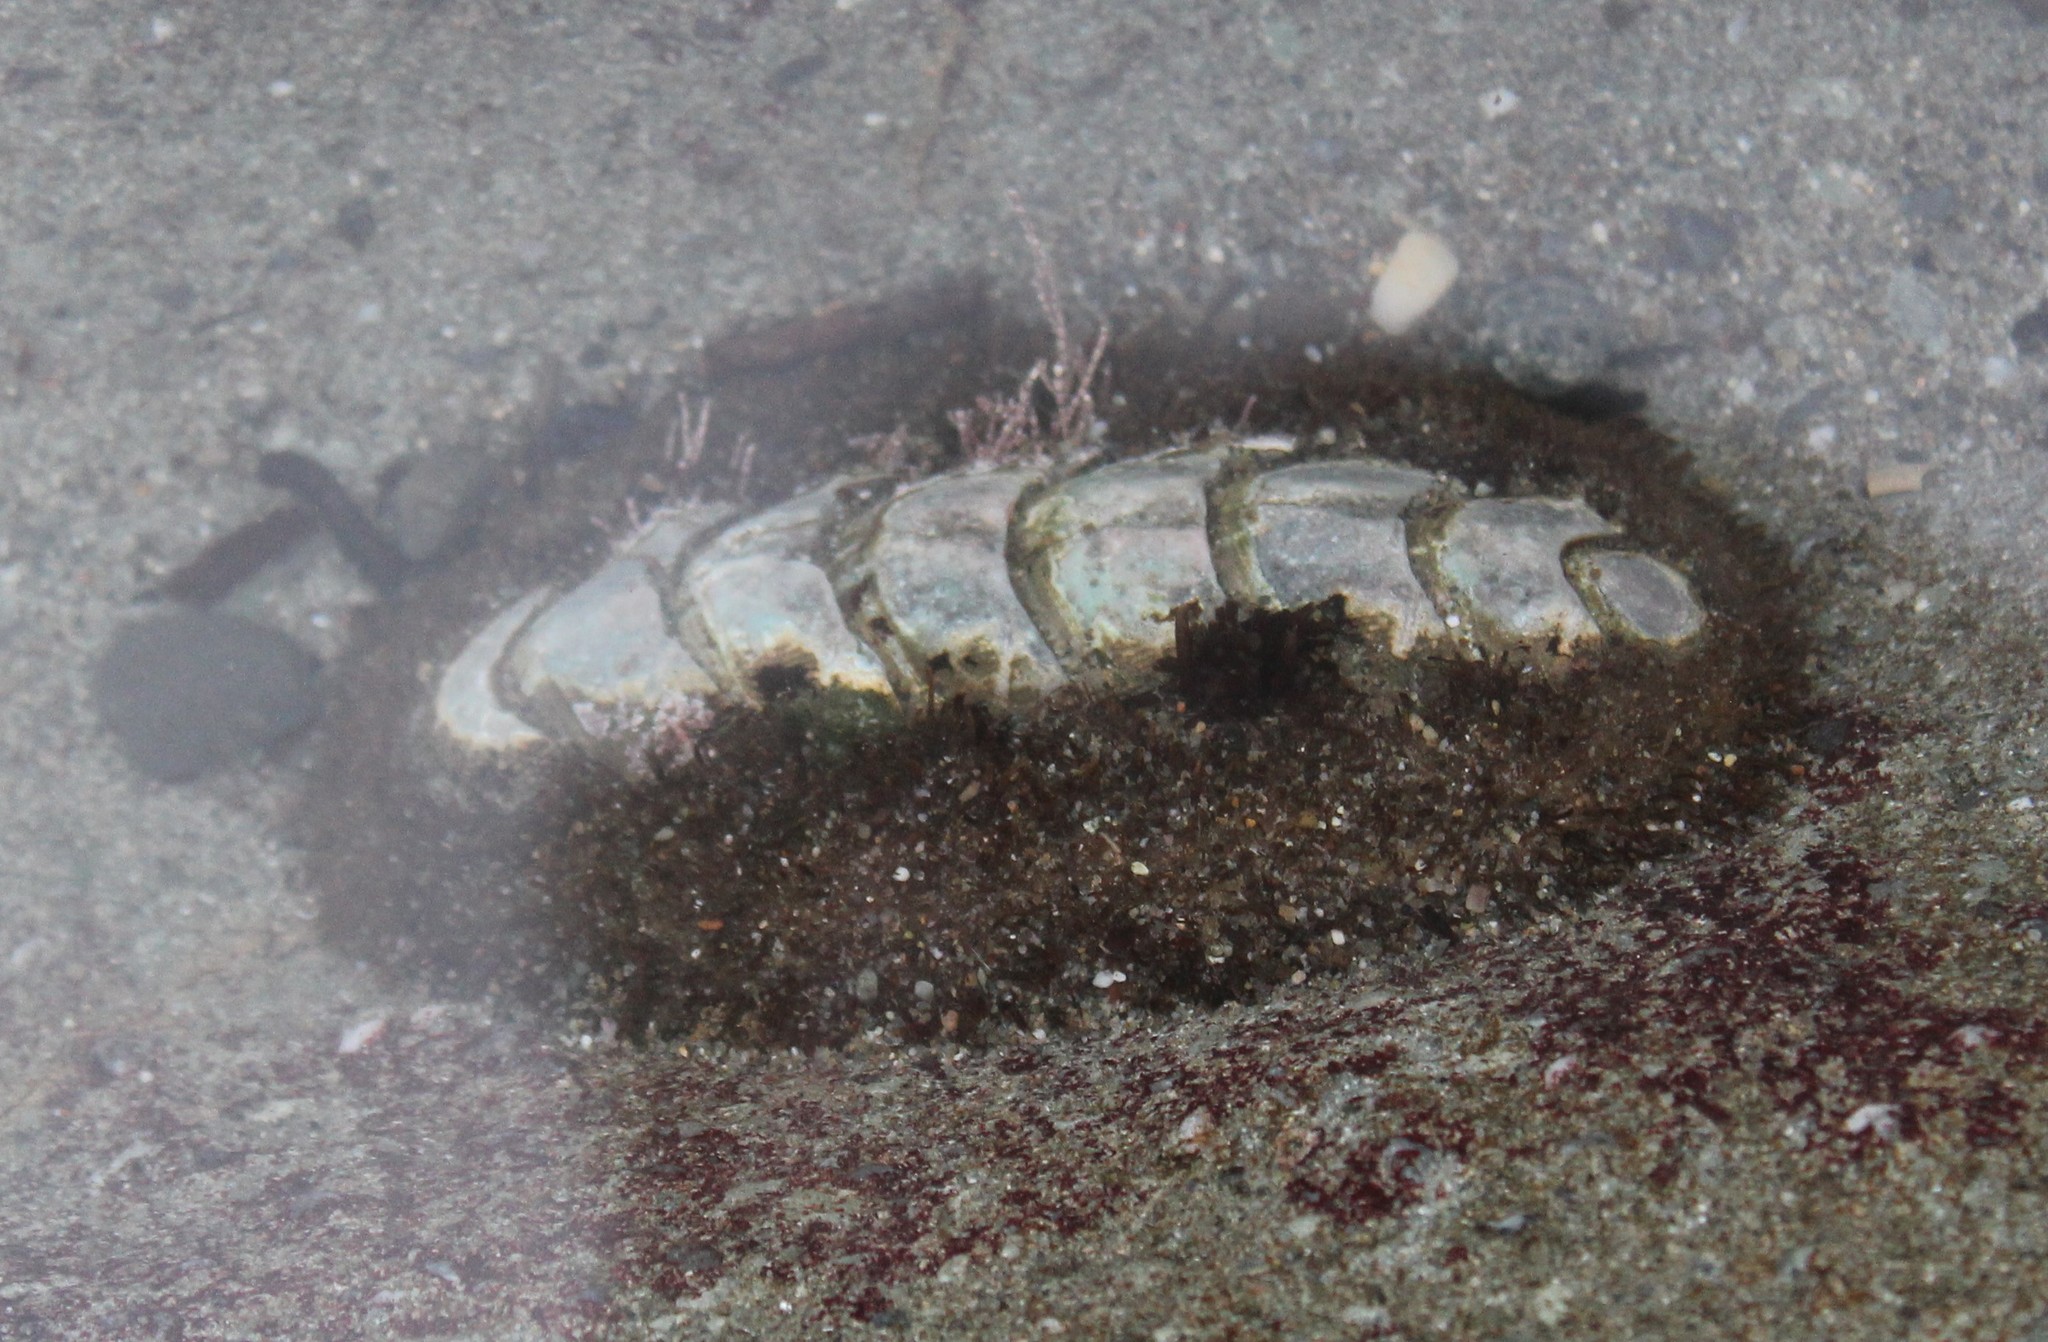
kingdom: Animalia
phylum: Mollusca
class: Polyplacophora
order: Chitonida
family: Mopaliidae
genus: Mopalia
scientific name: Mopalia muscosa
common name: Mossy chiton
